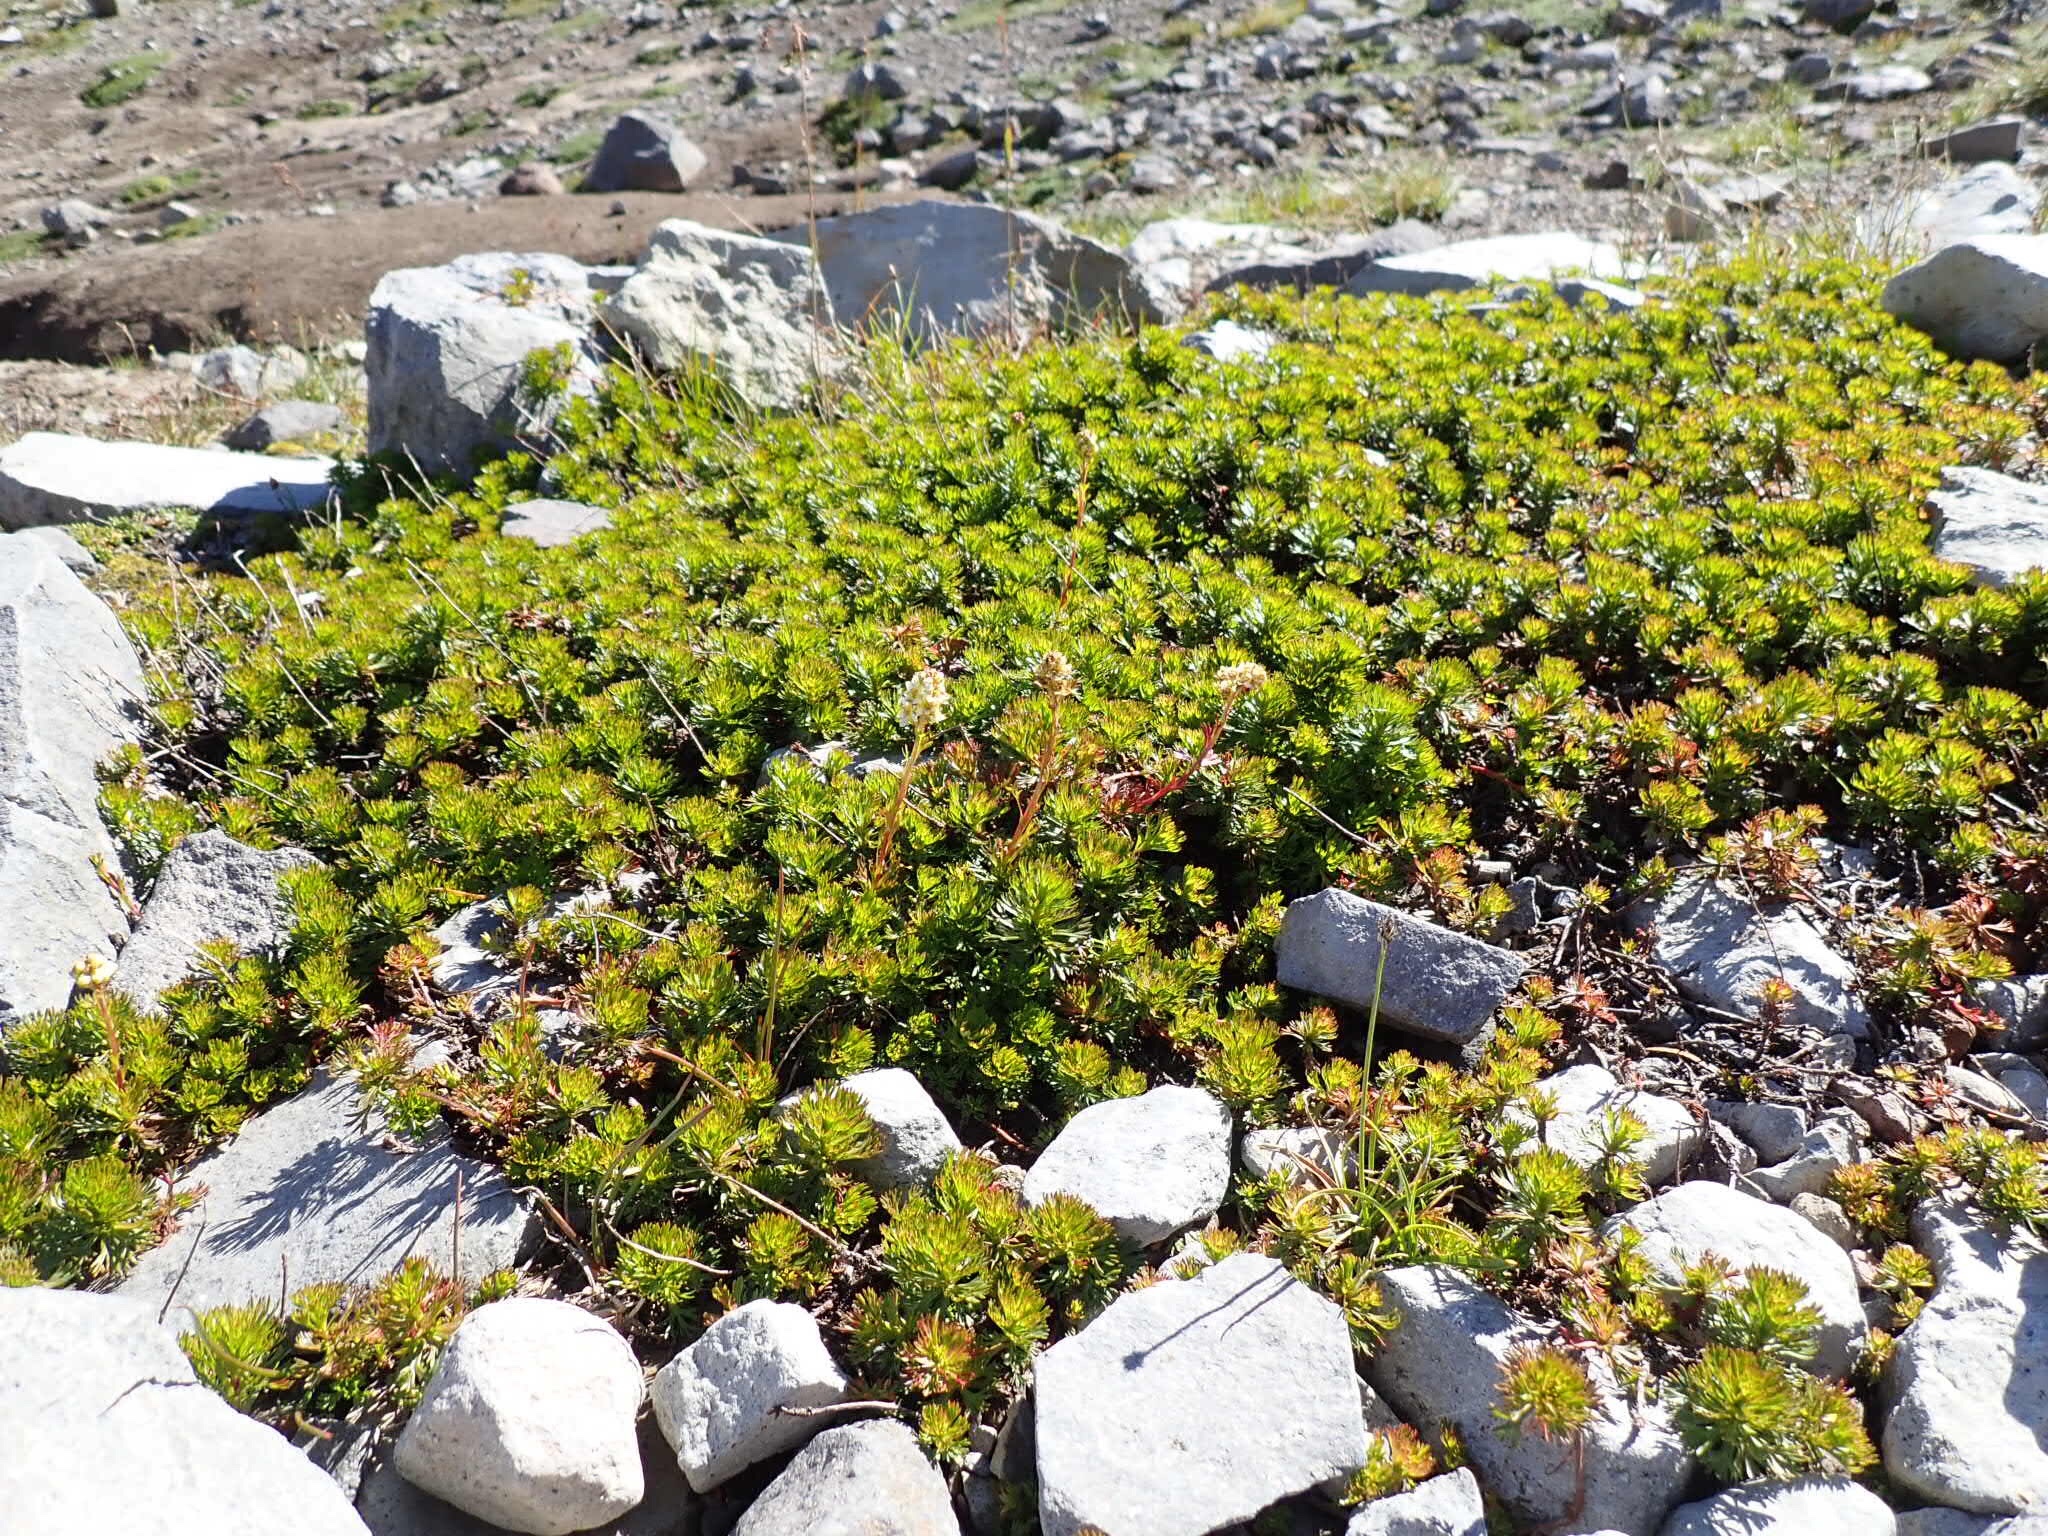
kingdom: Plantae
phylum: Tracheophyta
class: Magnoliopsida
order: Rosales
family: Rosaceae
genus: Luetkea
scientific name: Luetkea pectinata
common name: Partridgefoot
